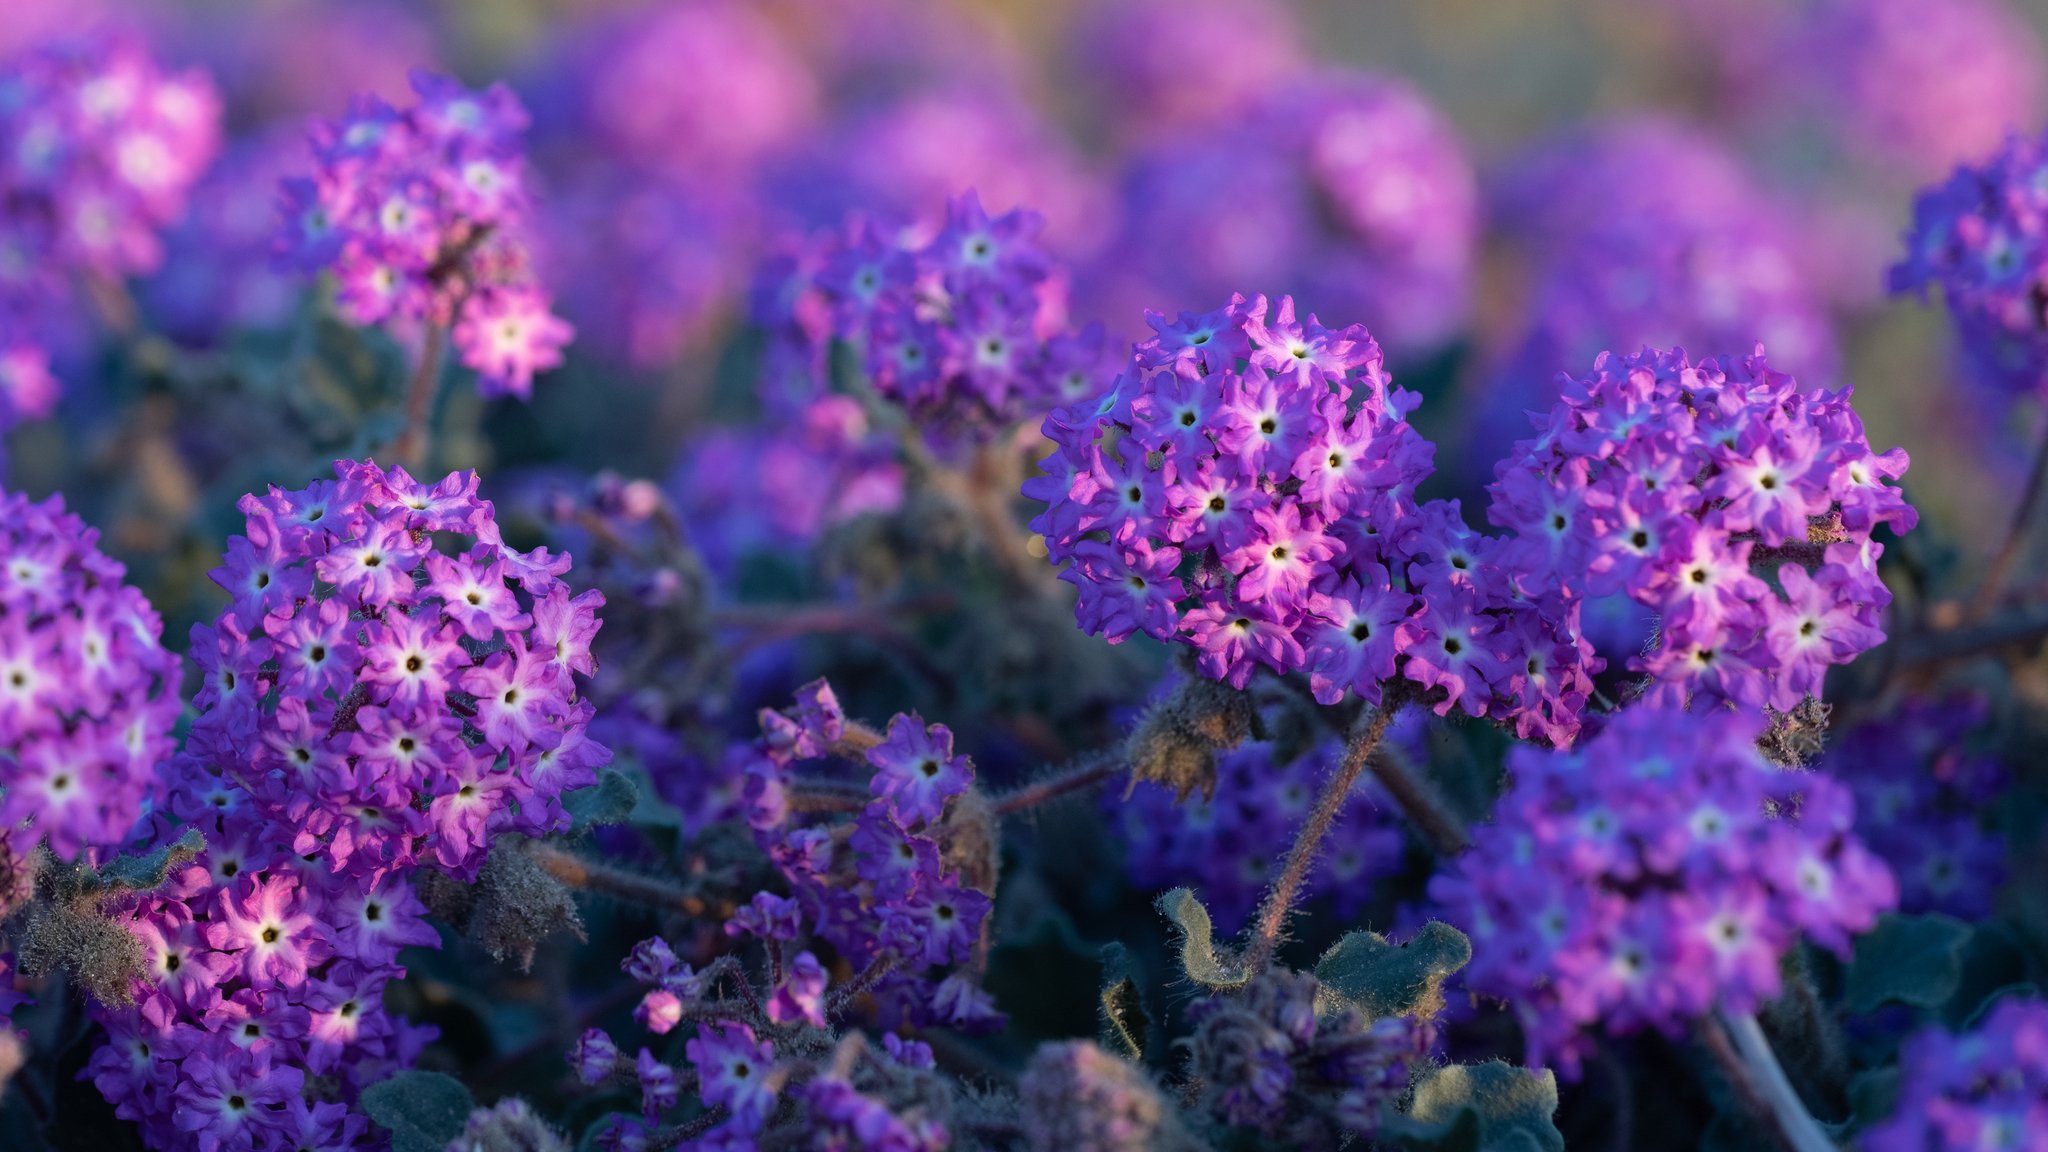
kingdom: Plantae
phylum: Tracheophyta
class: Magnoliopsida
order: Caryophyllales
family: Nyctaginaceae
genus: Abronia
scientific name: Abronia villosa
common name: Desert sand-verbena
